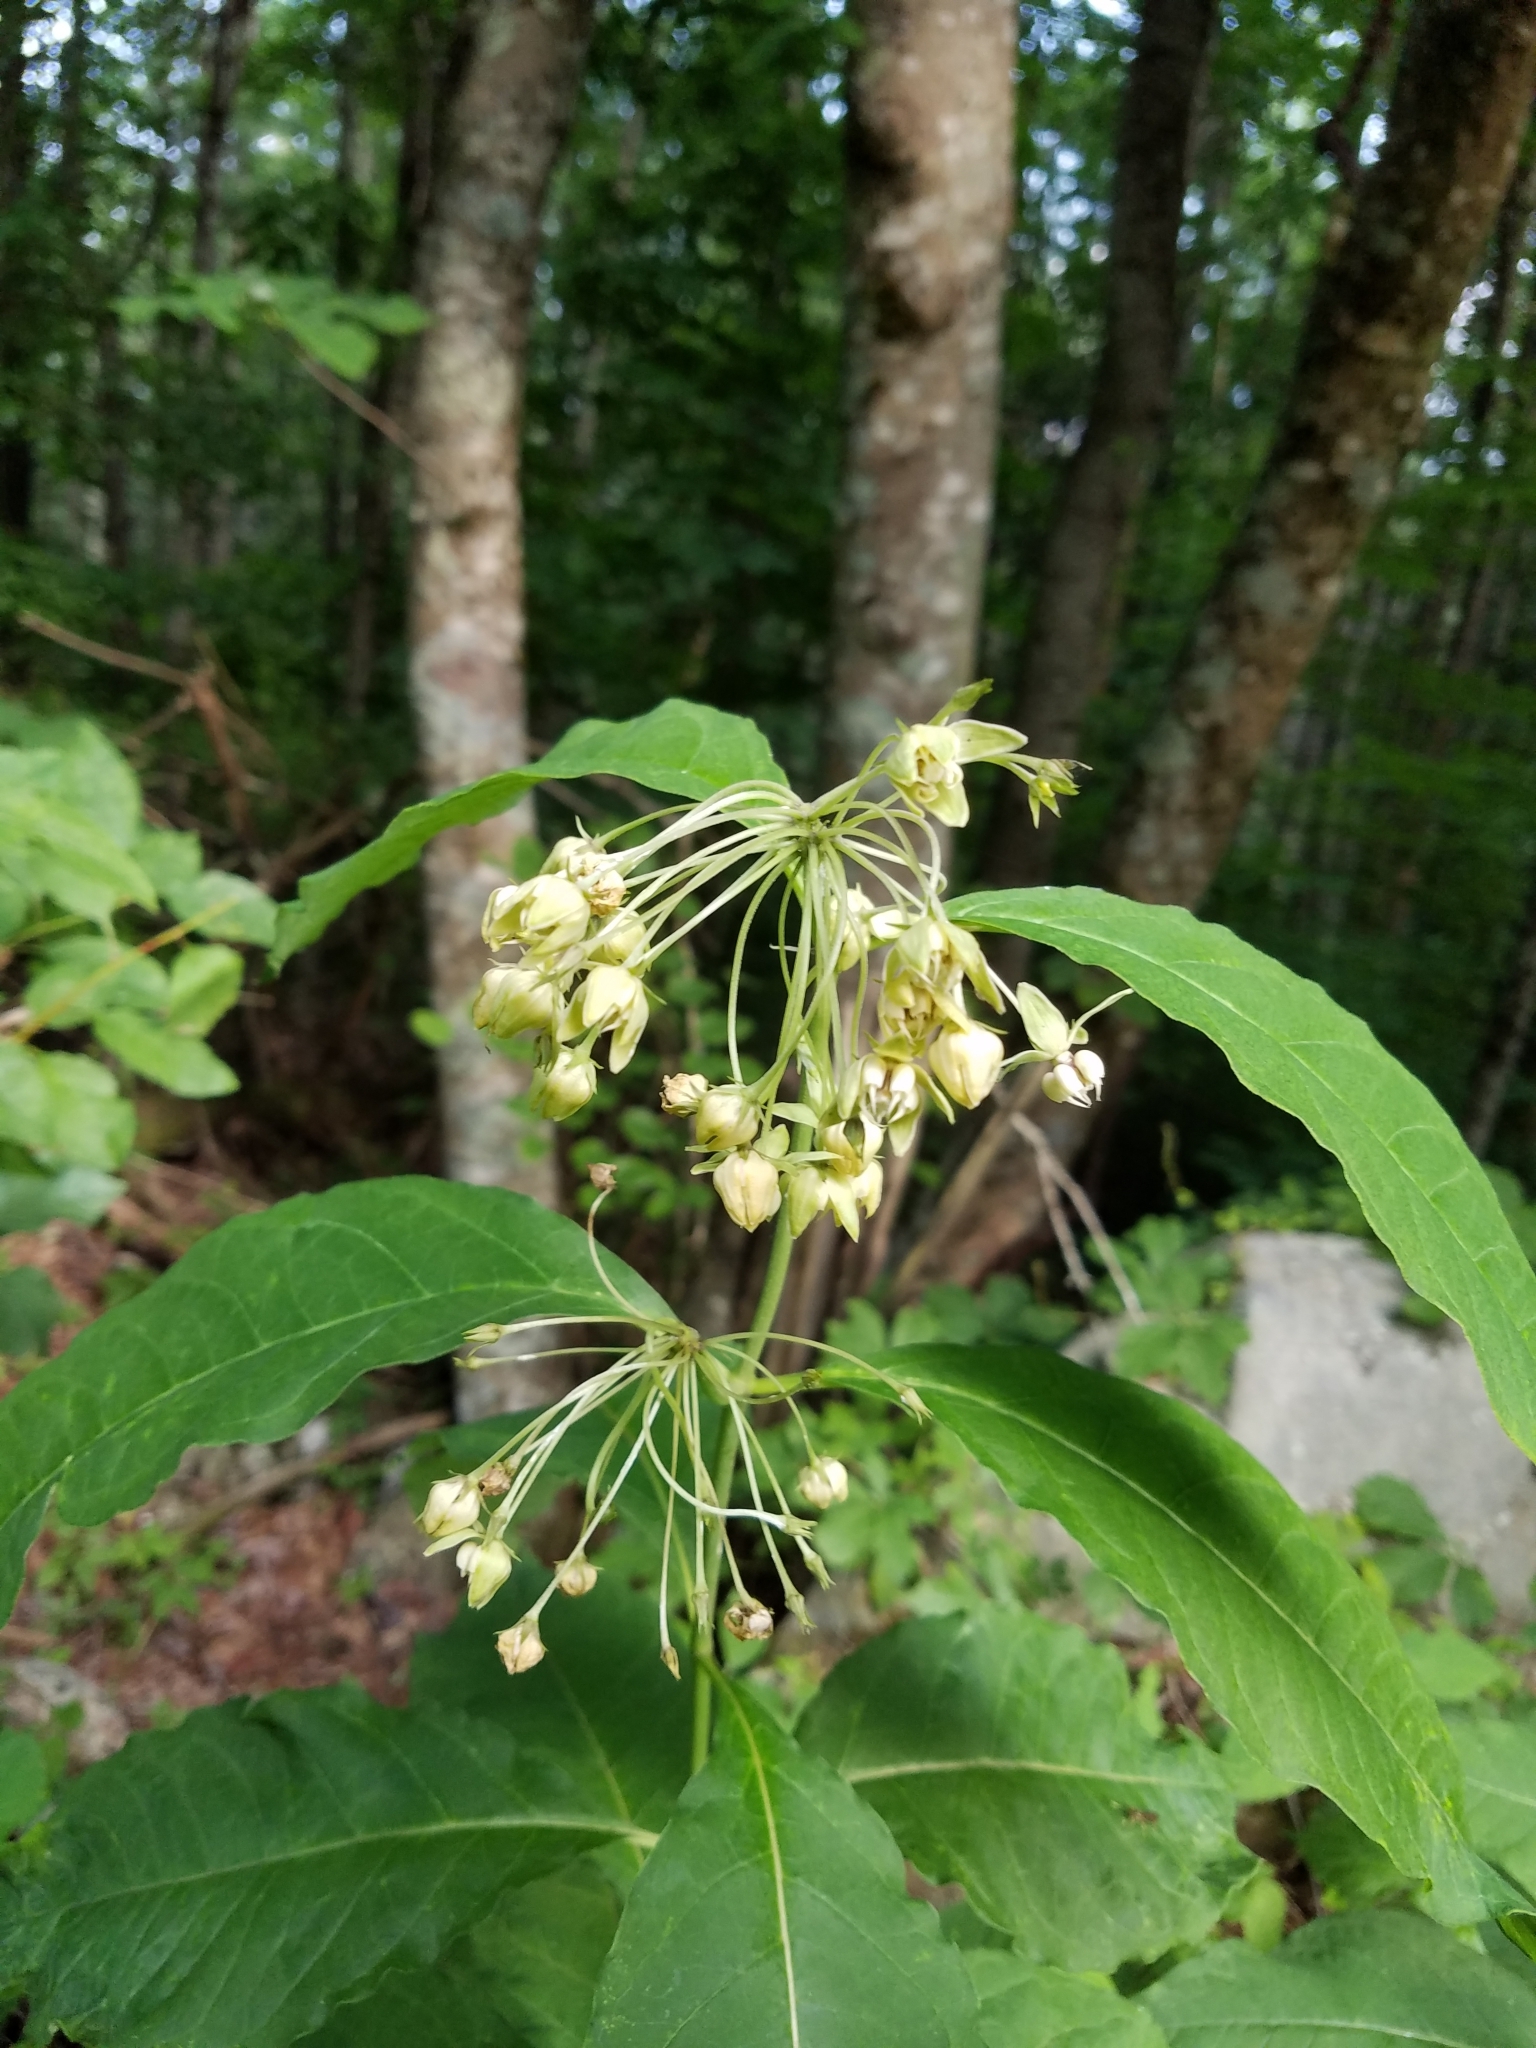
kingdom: Plantae
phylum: Tracheophyta
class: Magnoliopsida
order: Gentianales
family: Apocynaceae
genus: Asclepias
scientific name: Asclepias exaltata
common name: Poke milkweed
